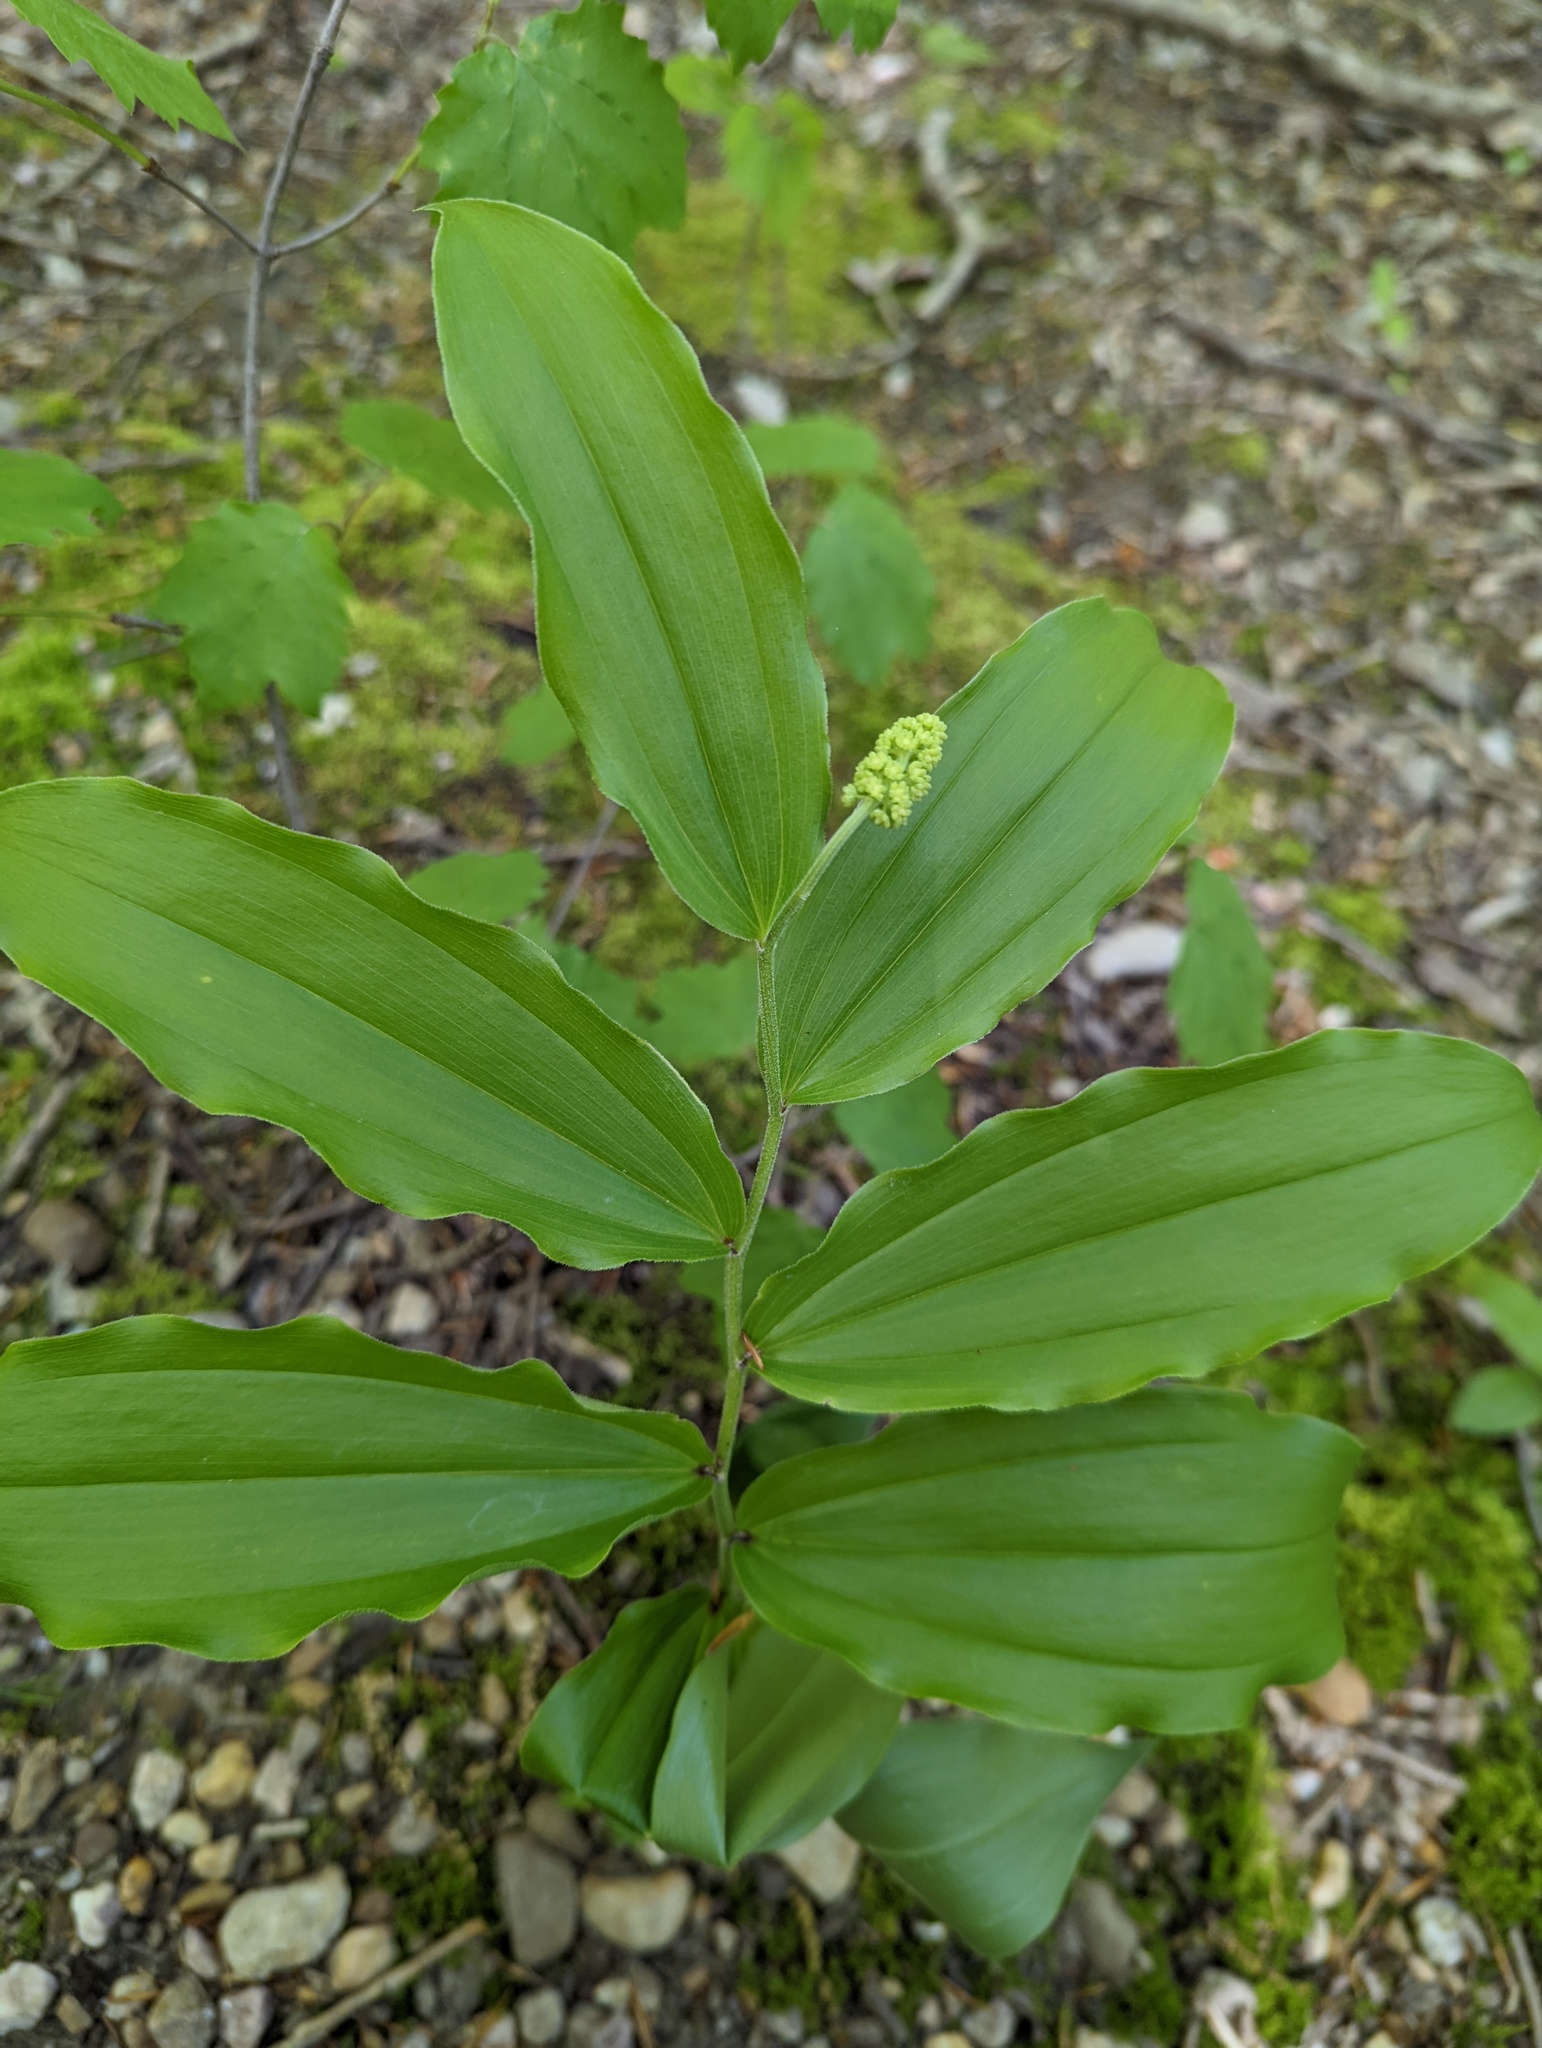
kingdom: Plantae
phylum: Tracheophyta
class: Liliopsida
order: Asparagales
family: Asparagaceae
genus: Maianthemum
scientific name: Maianthemum racemosum
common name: False spikenard
